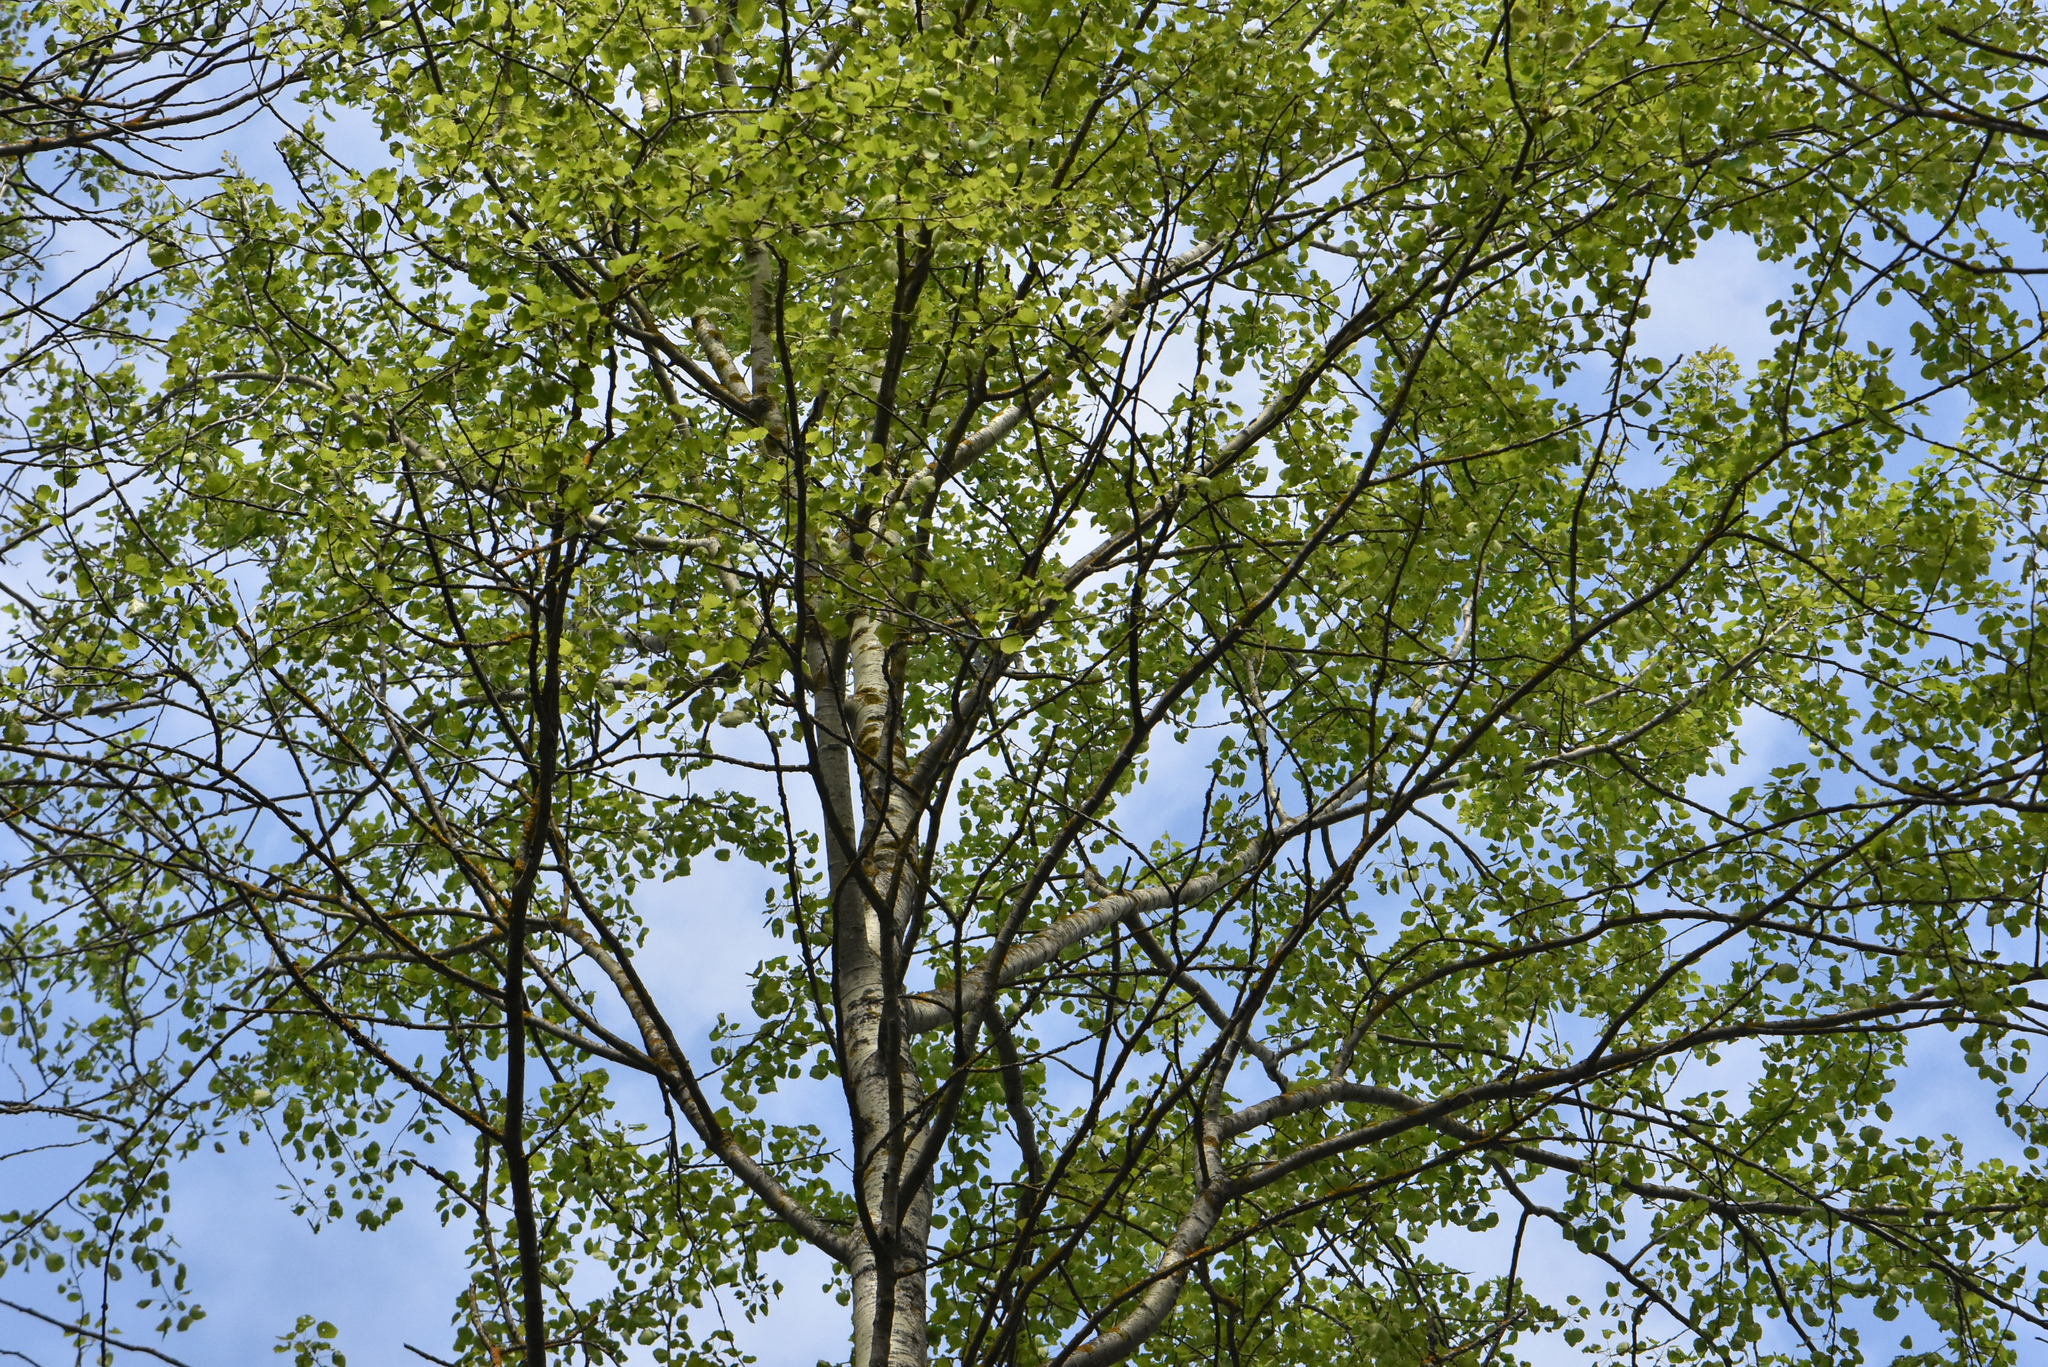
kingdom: Plantae
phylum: Tracheophyta
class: Magnoliopsida
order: Malpighiales
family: Salicaceae
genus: Populus
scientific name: Populus tremula
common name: European aspen
